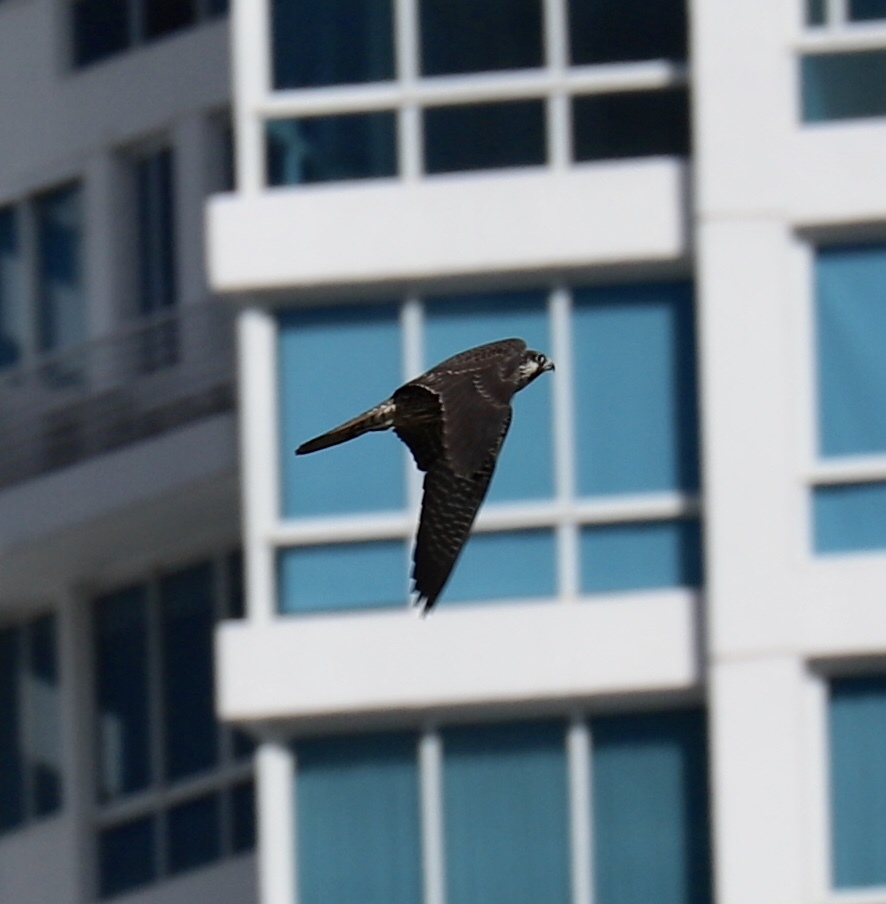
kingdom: Animalia
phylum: Chordata
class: Aves
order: Falconiformes
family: Falconidae
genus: Falco
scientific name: Falco peregrinus
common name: Peregrine falcon
